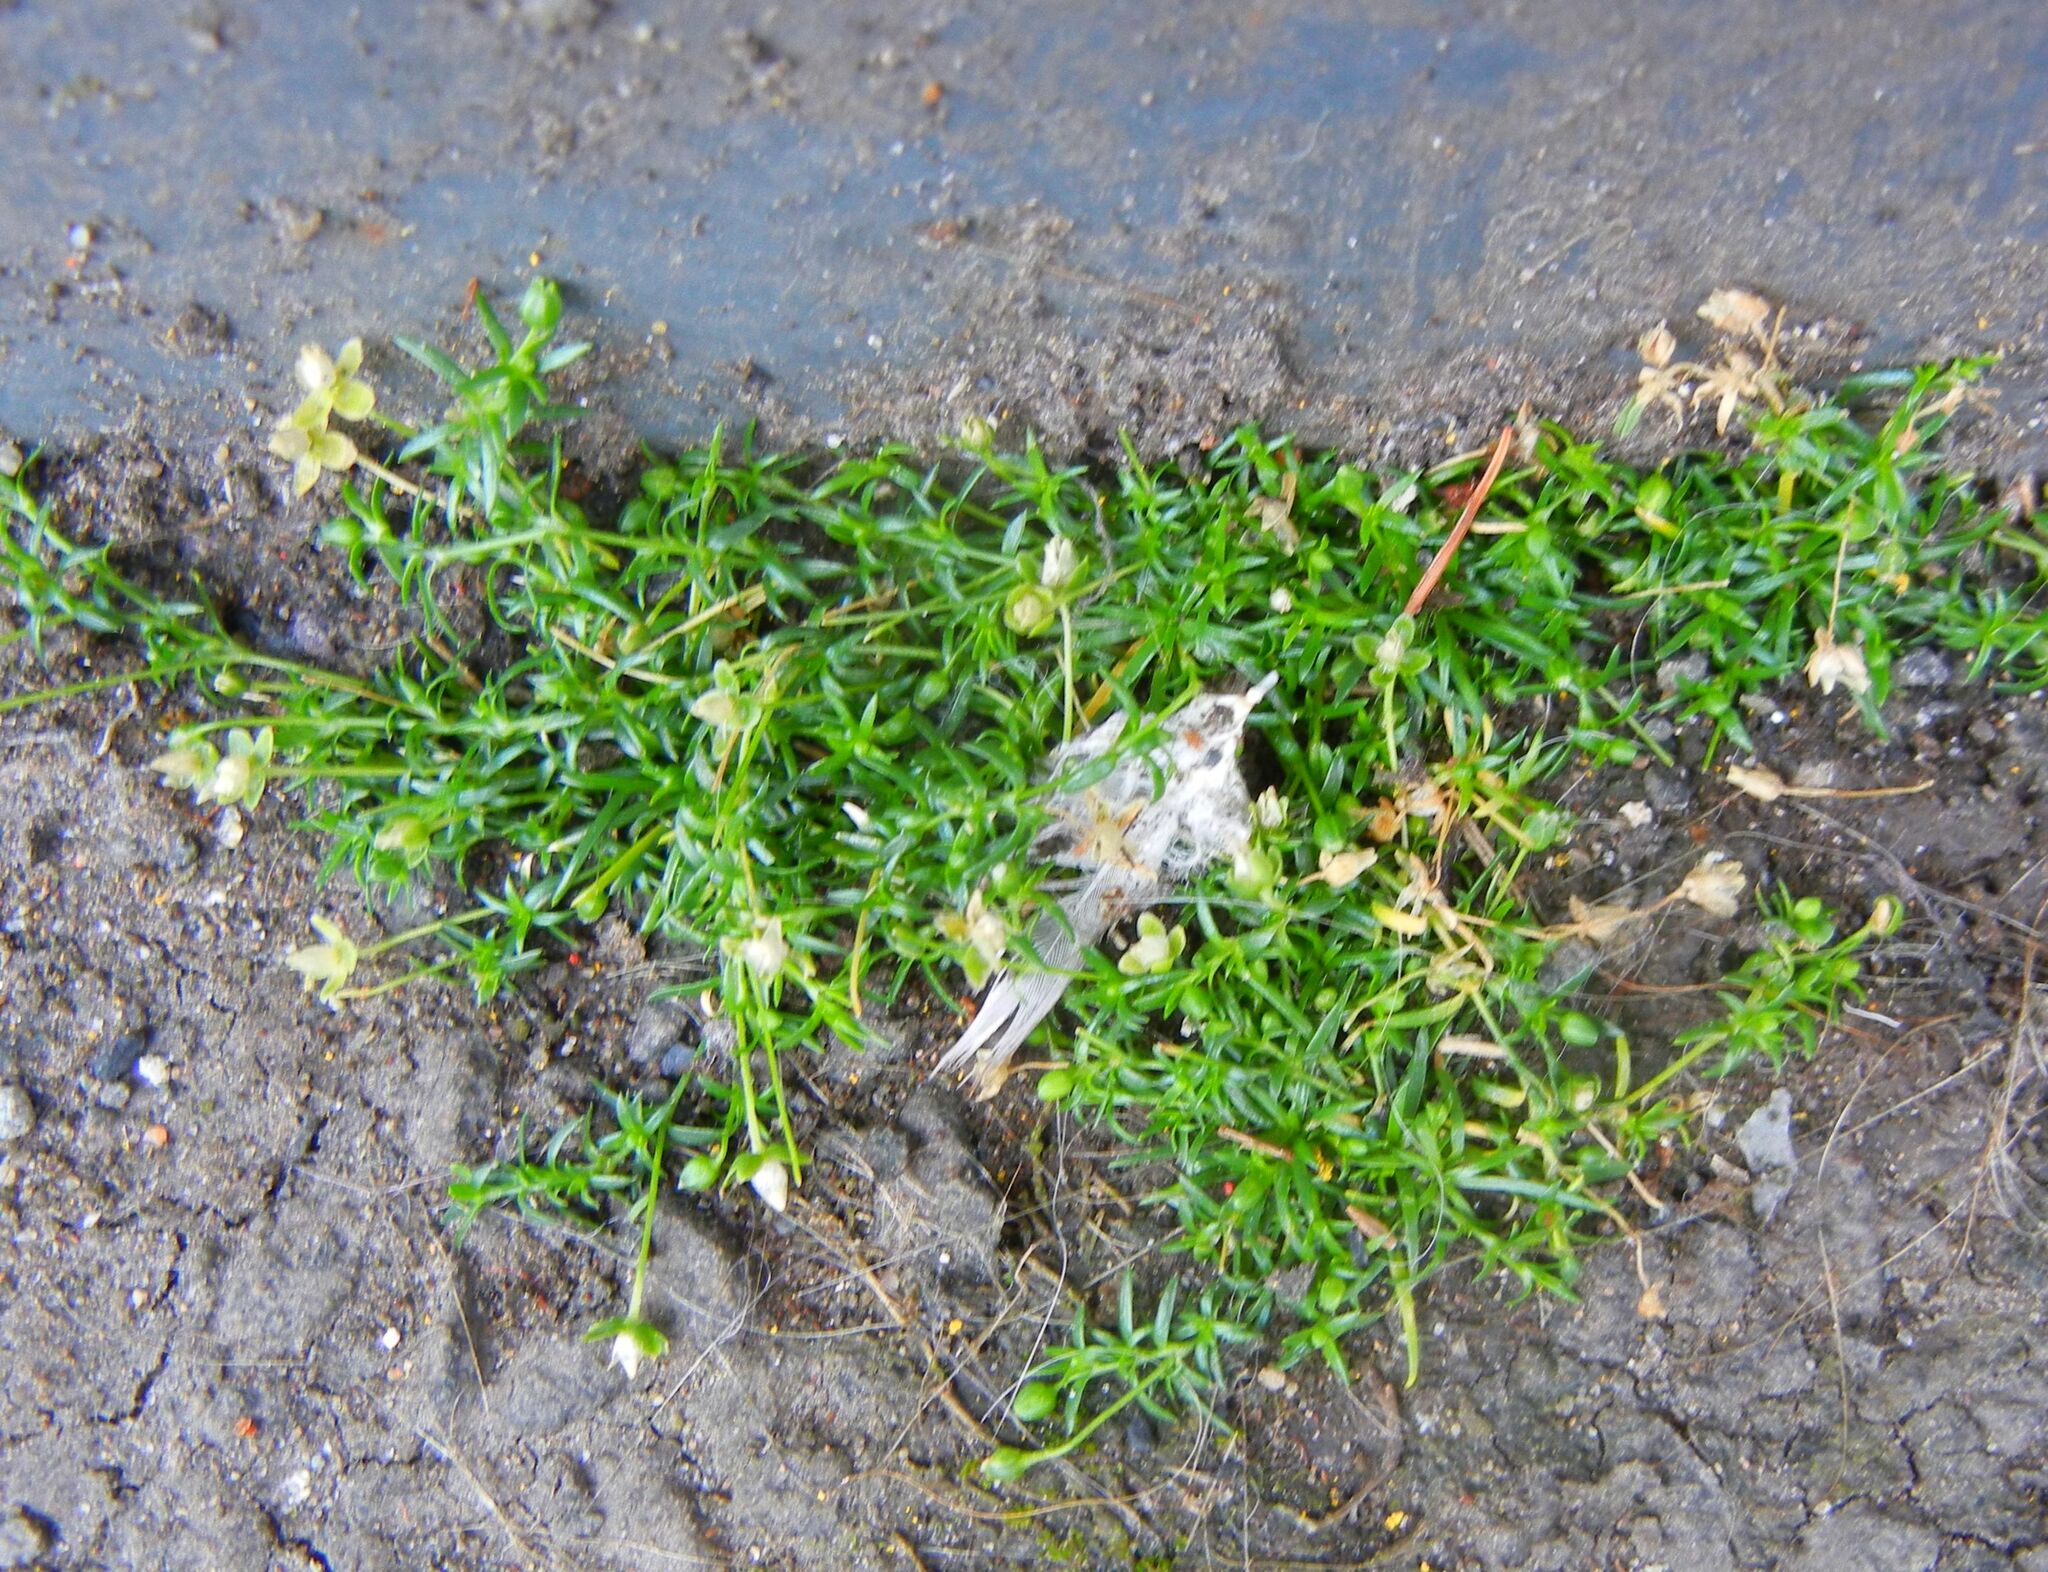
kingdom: Plantae
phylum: Tracheophyta
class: Magnoliopsida
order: Caryophyllales
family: Caryophyllaceae
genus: Sagina
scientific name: Sagina procumbens
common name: Procumbent pearlwort
